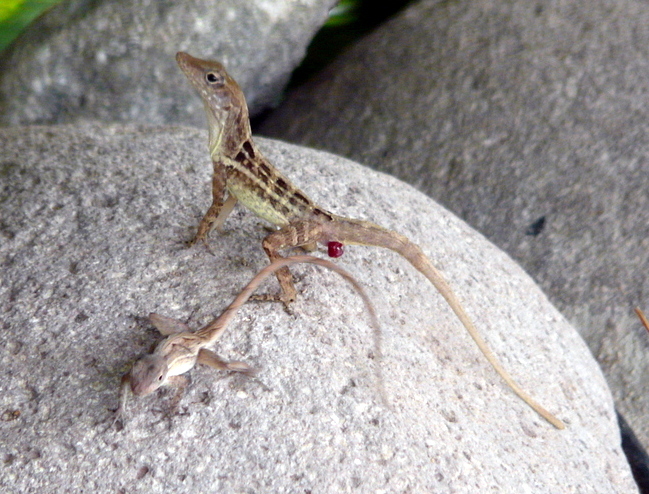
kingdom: Animalia
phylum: Chordata
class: Squamata
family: Dactyloidae
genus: Anolis
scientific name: Anolis lineatopus
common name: Stripefoot anole
